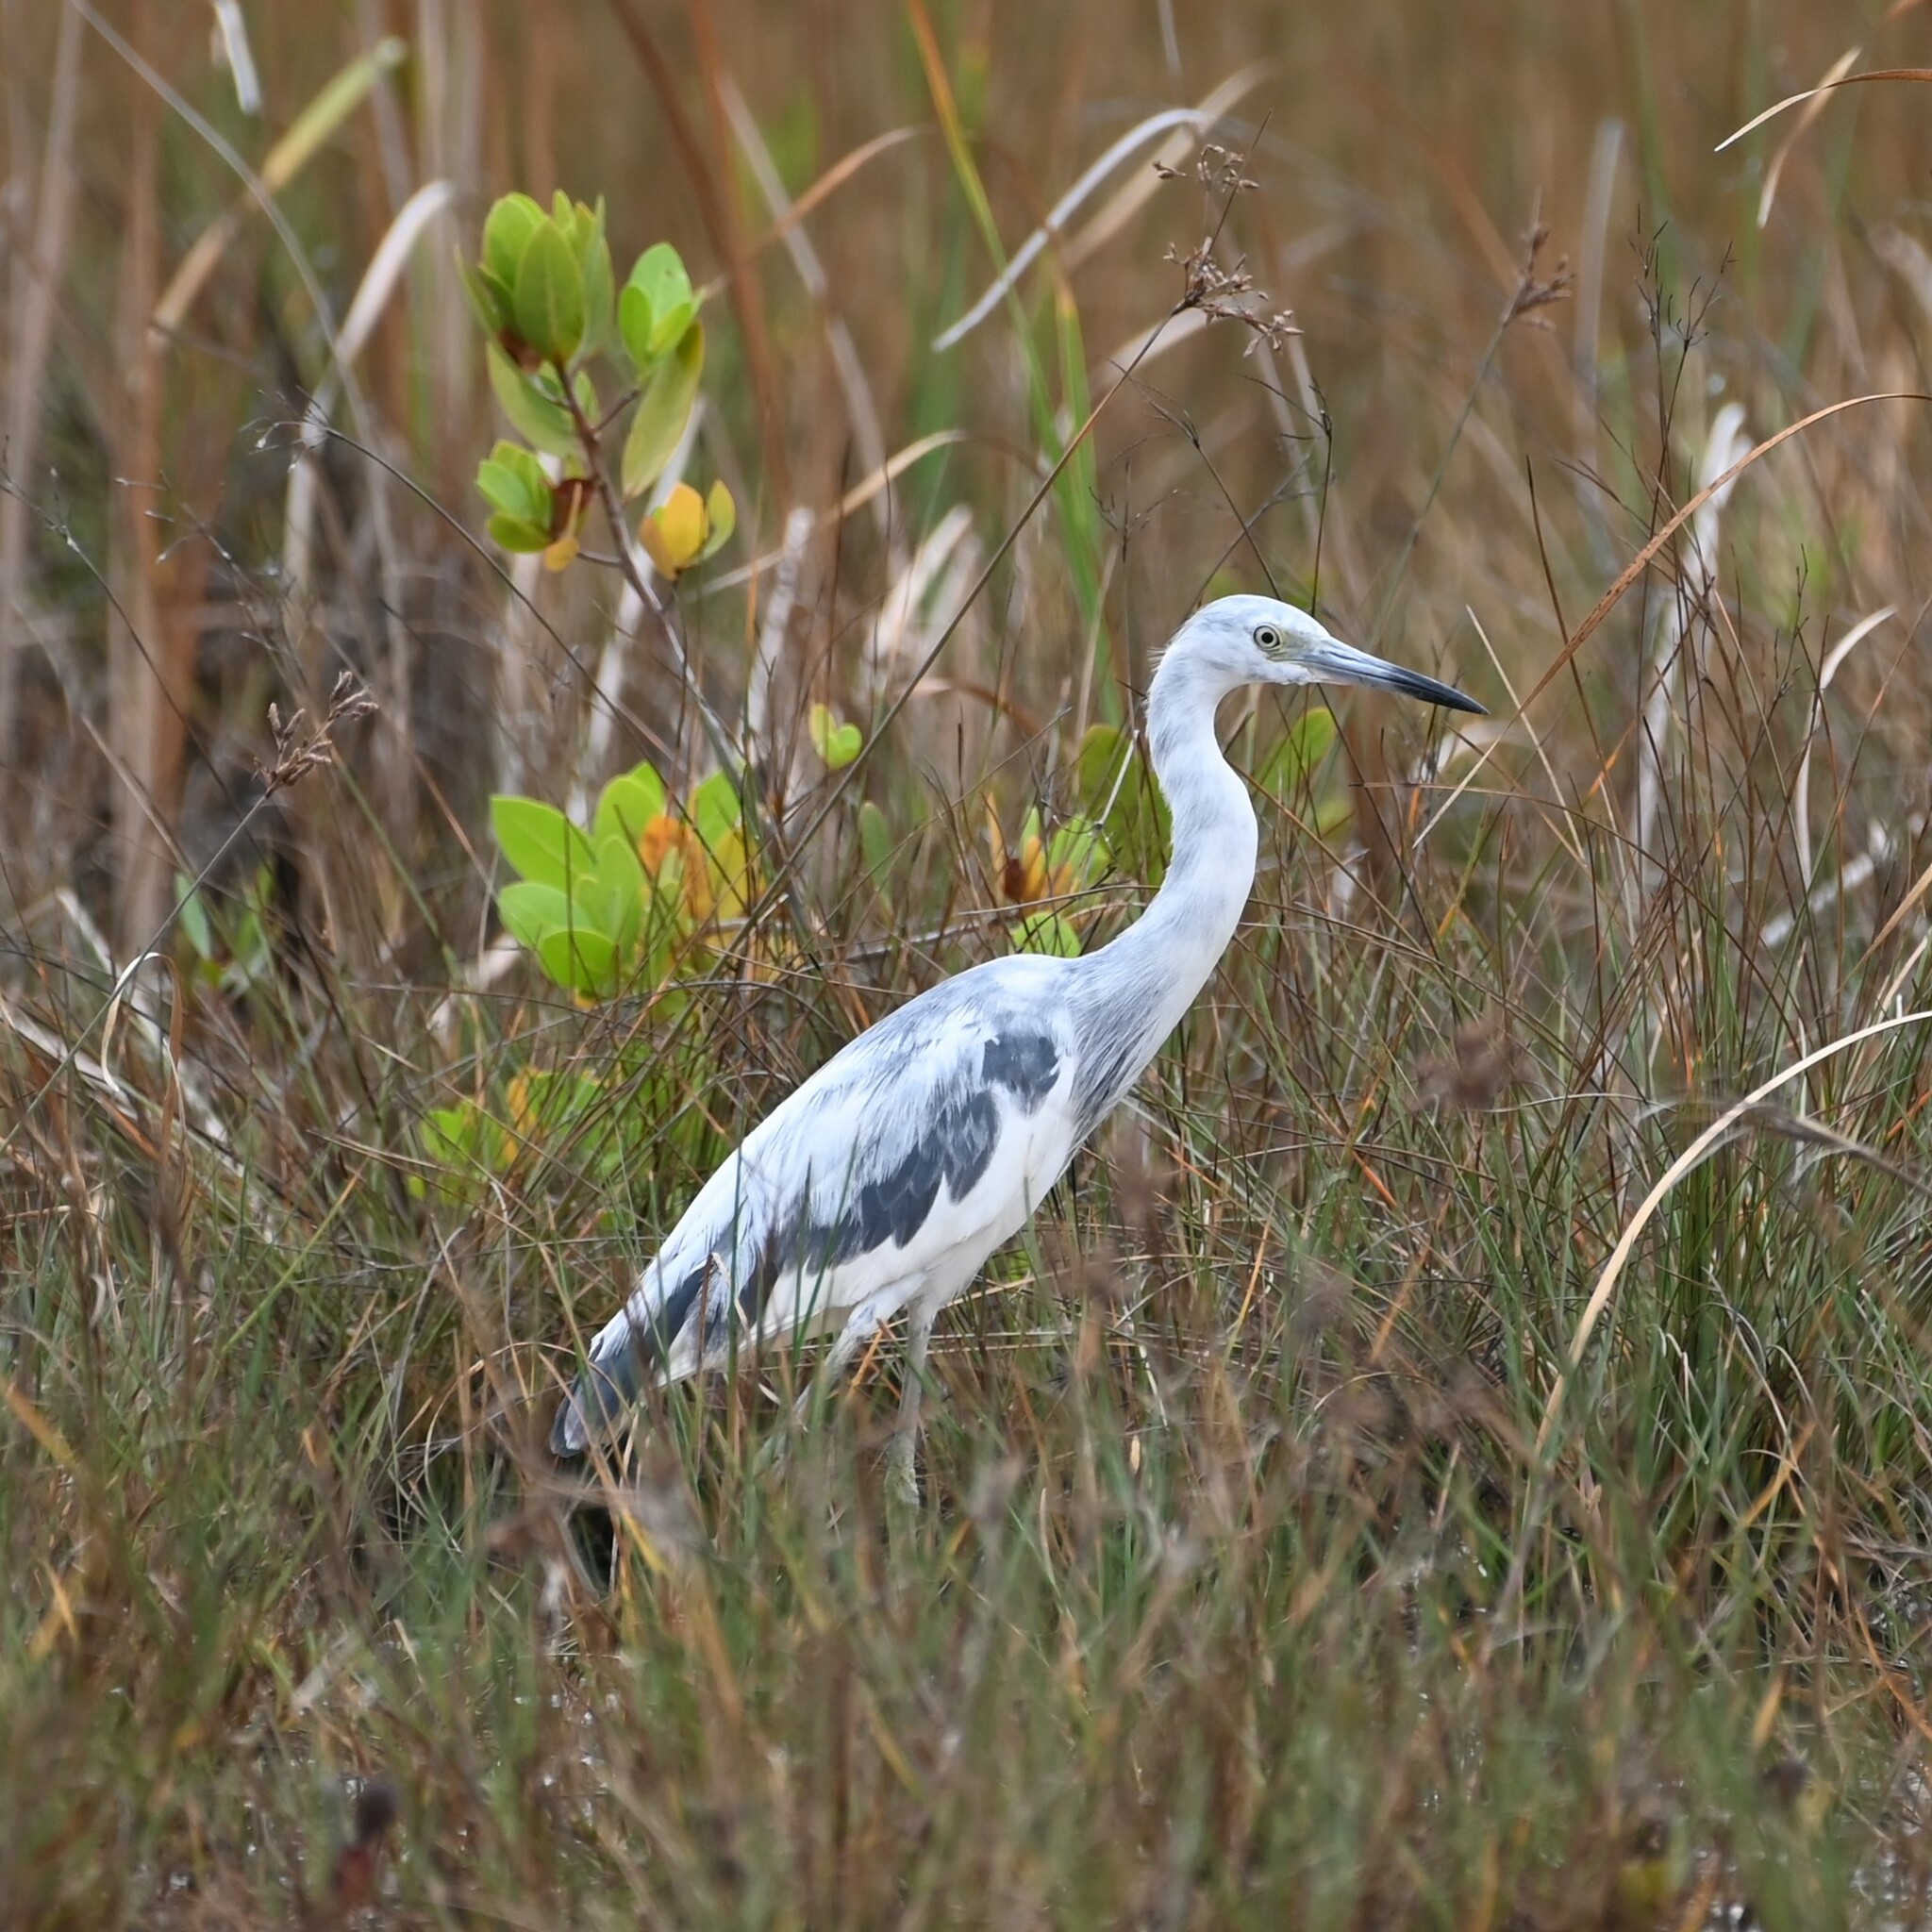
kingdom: Animalia
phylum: Chordata
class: Aves
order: Pelecaniformes
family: Ardeidae
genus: Egretta
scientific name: Egretta caerulea
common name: Little blue heron
